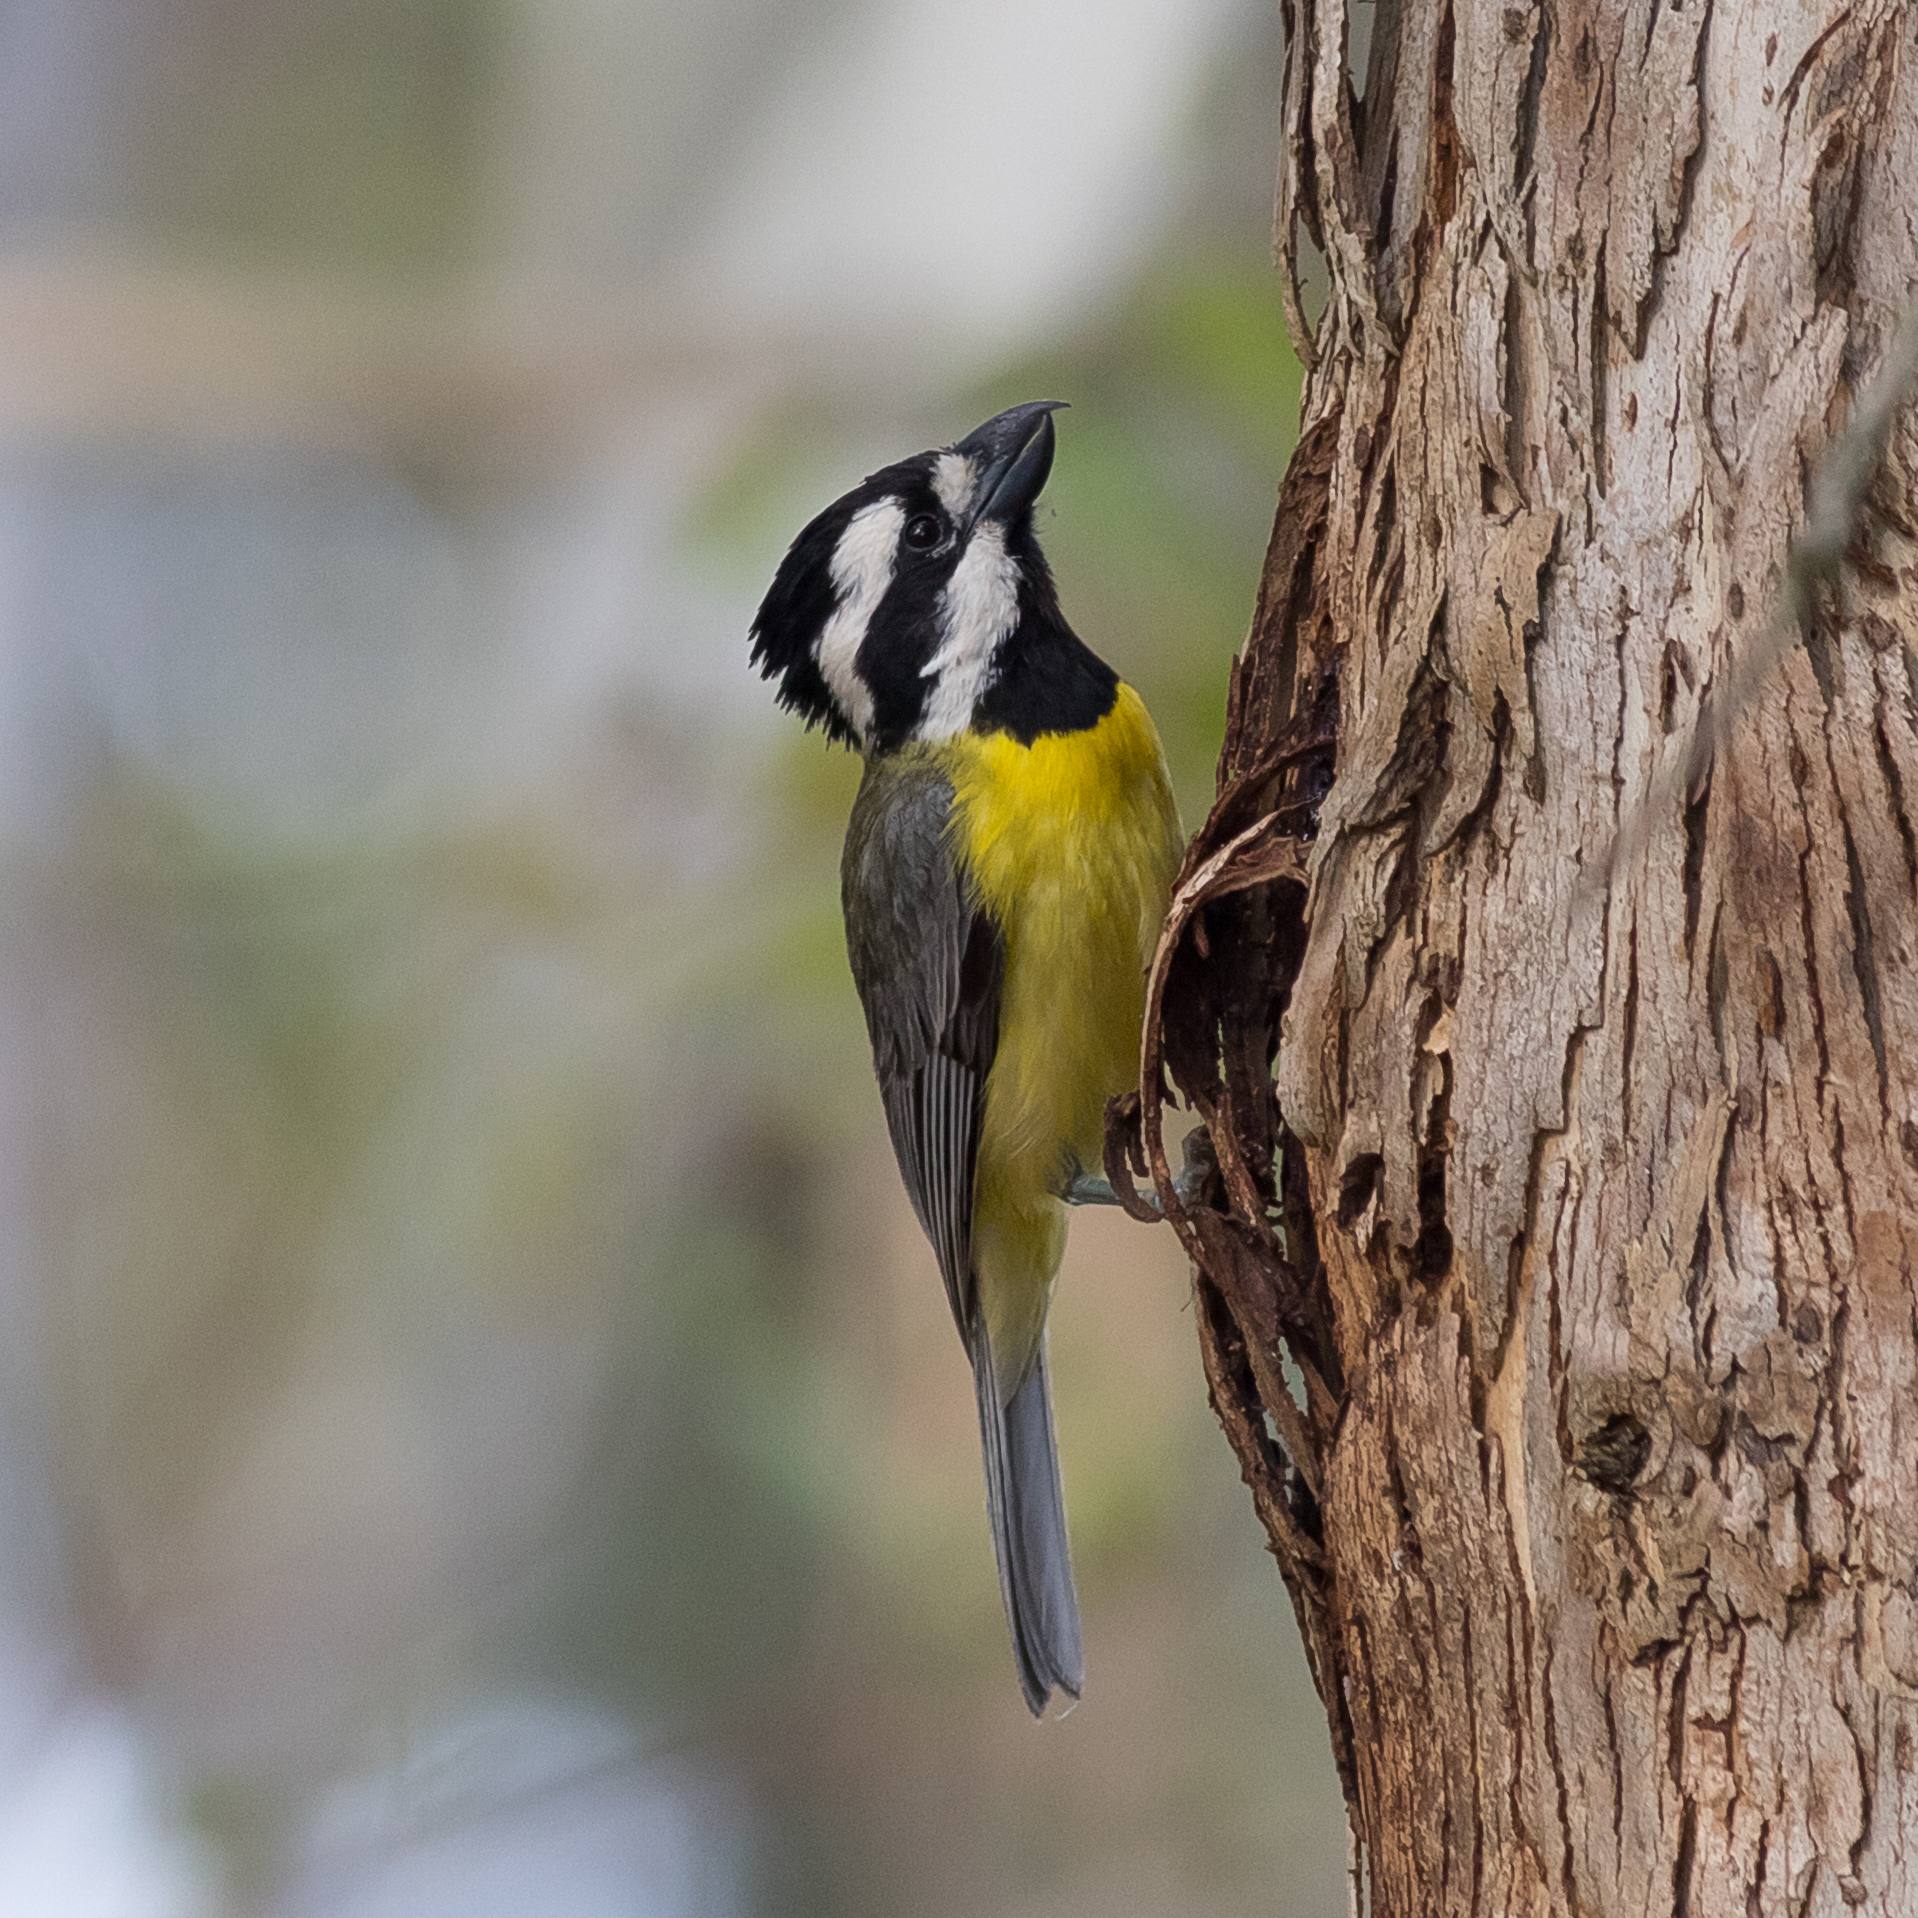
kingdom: Animalia
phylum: Chordata
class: Aves
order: Passeriformes
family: Pachycephalidae
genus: Falcunculus
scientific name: Falcunculus frontatus
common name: Crested shriketit
